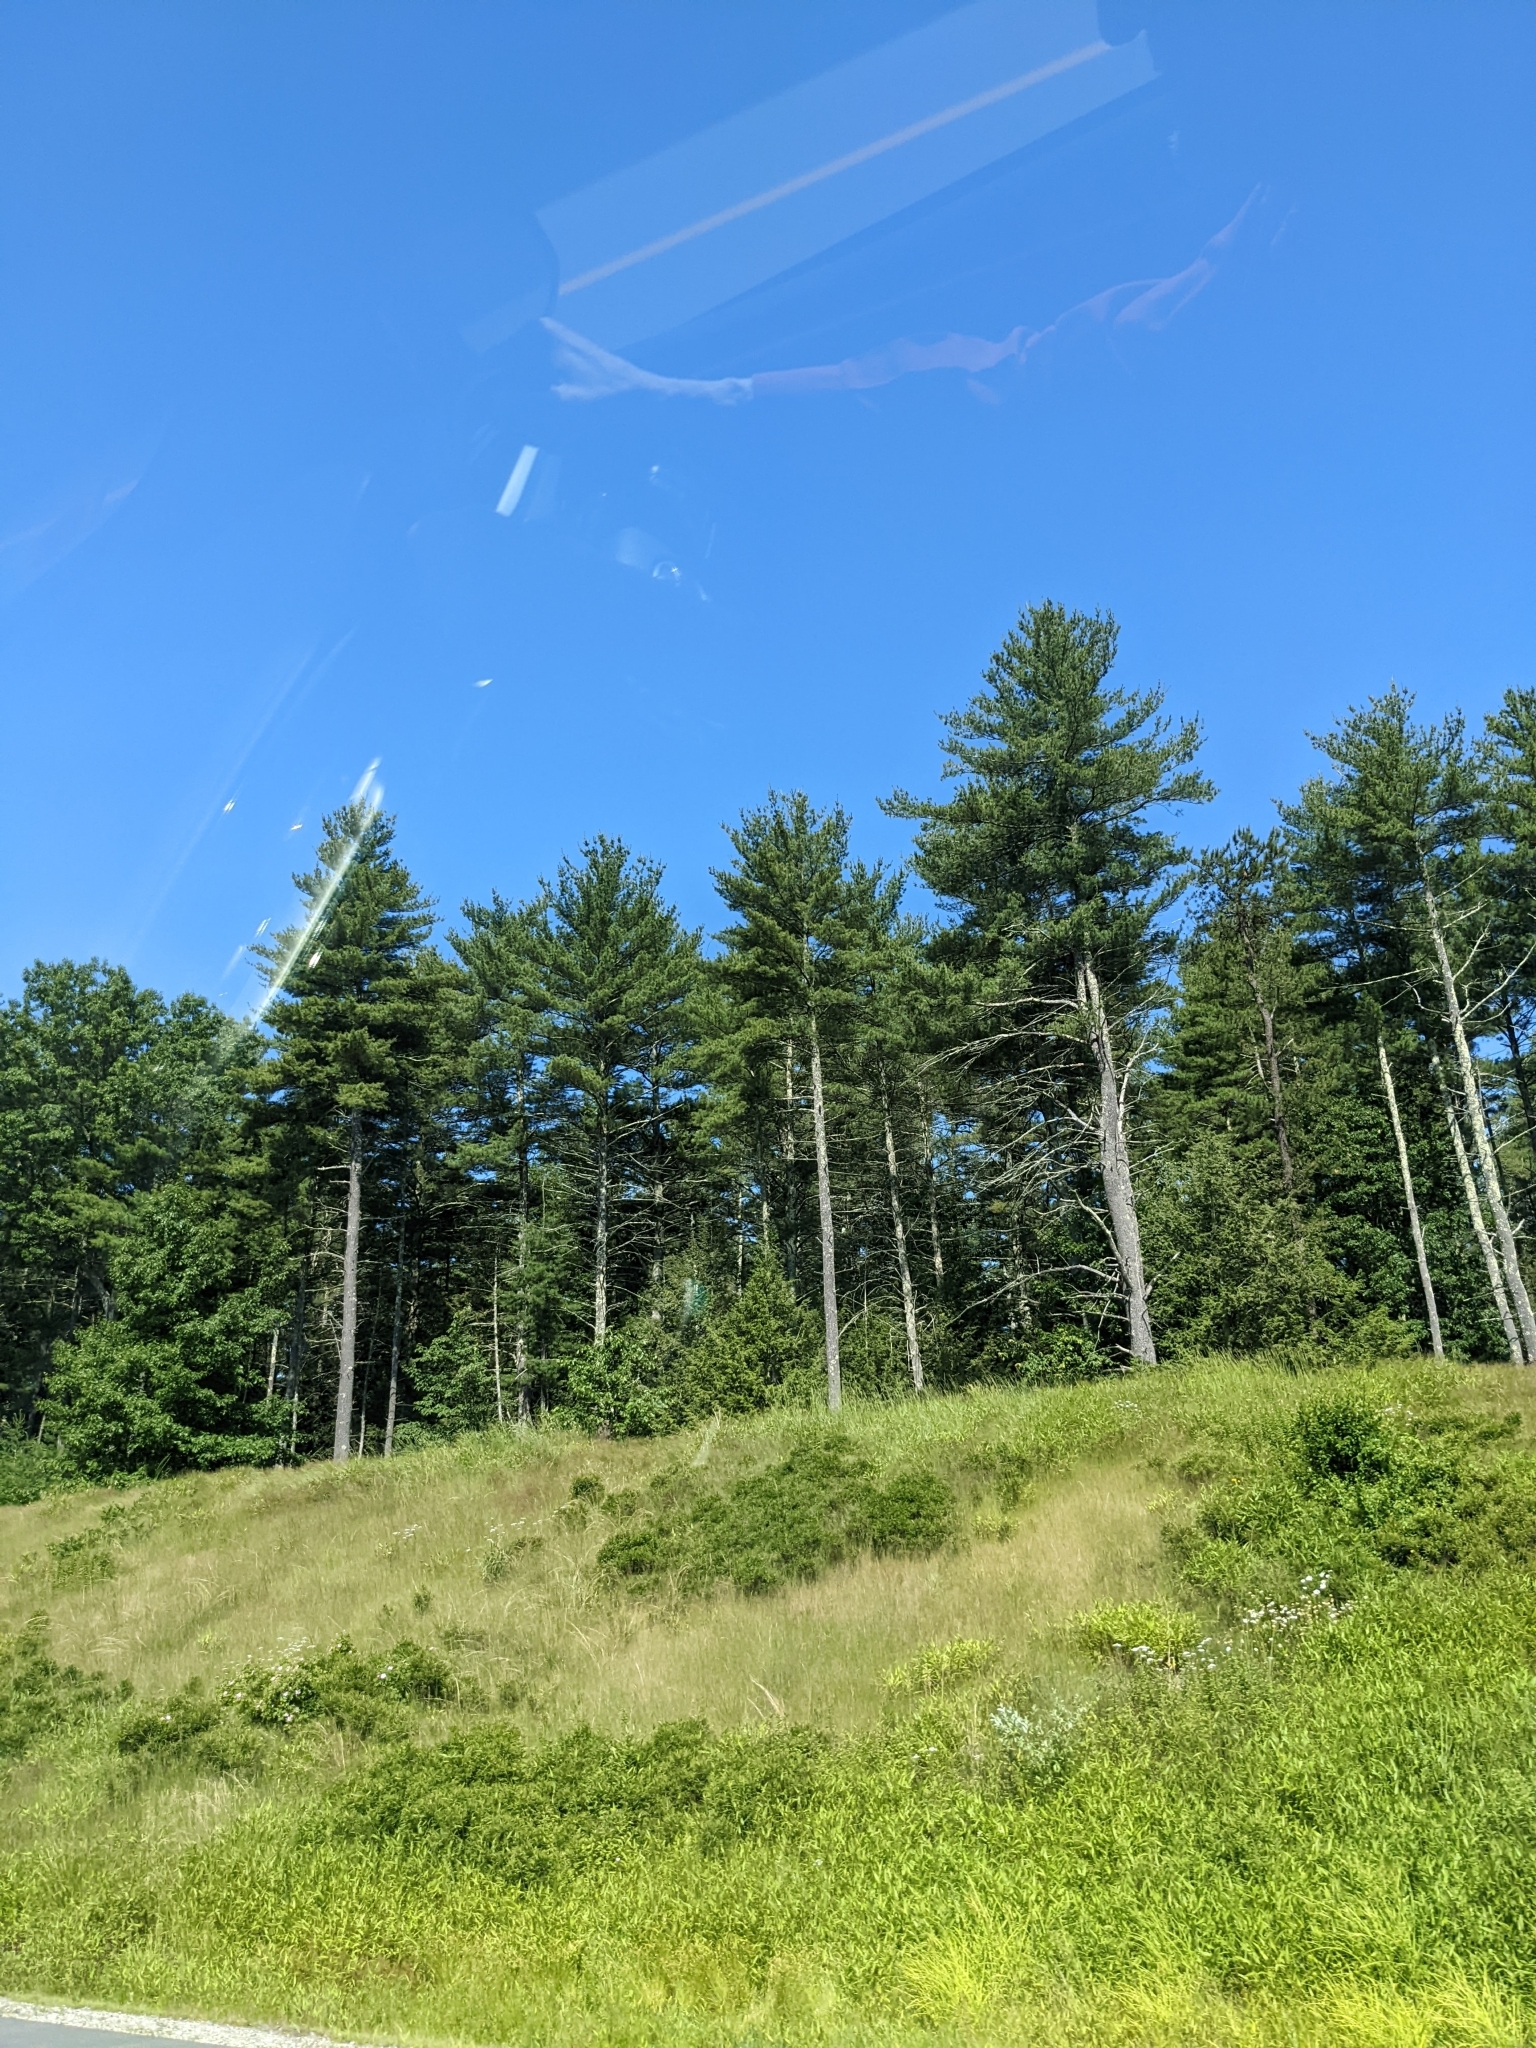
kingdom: Plantae
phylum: Tracheophyta
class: Pinopsida
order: Pinales
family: Pinaceae
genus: Pinus
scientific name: Pinus strobus
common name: Weymouth pine
